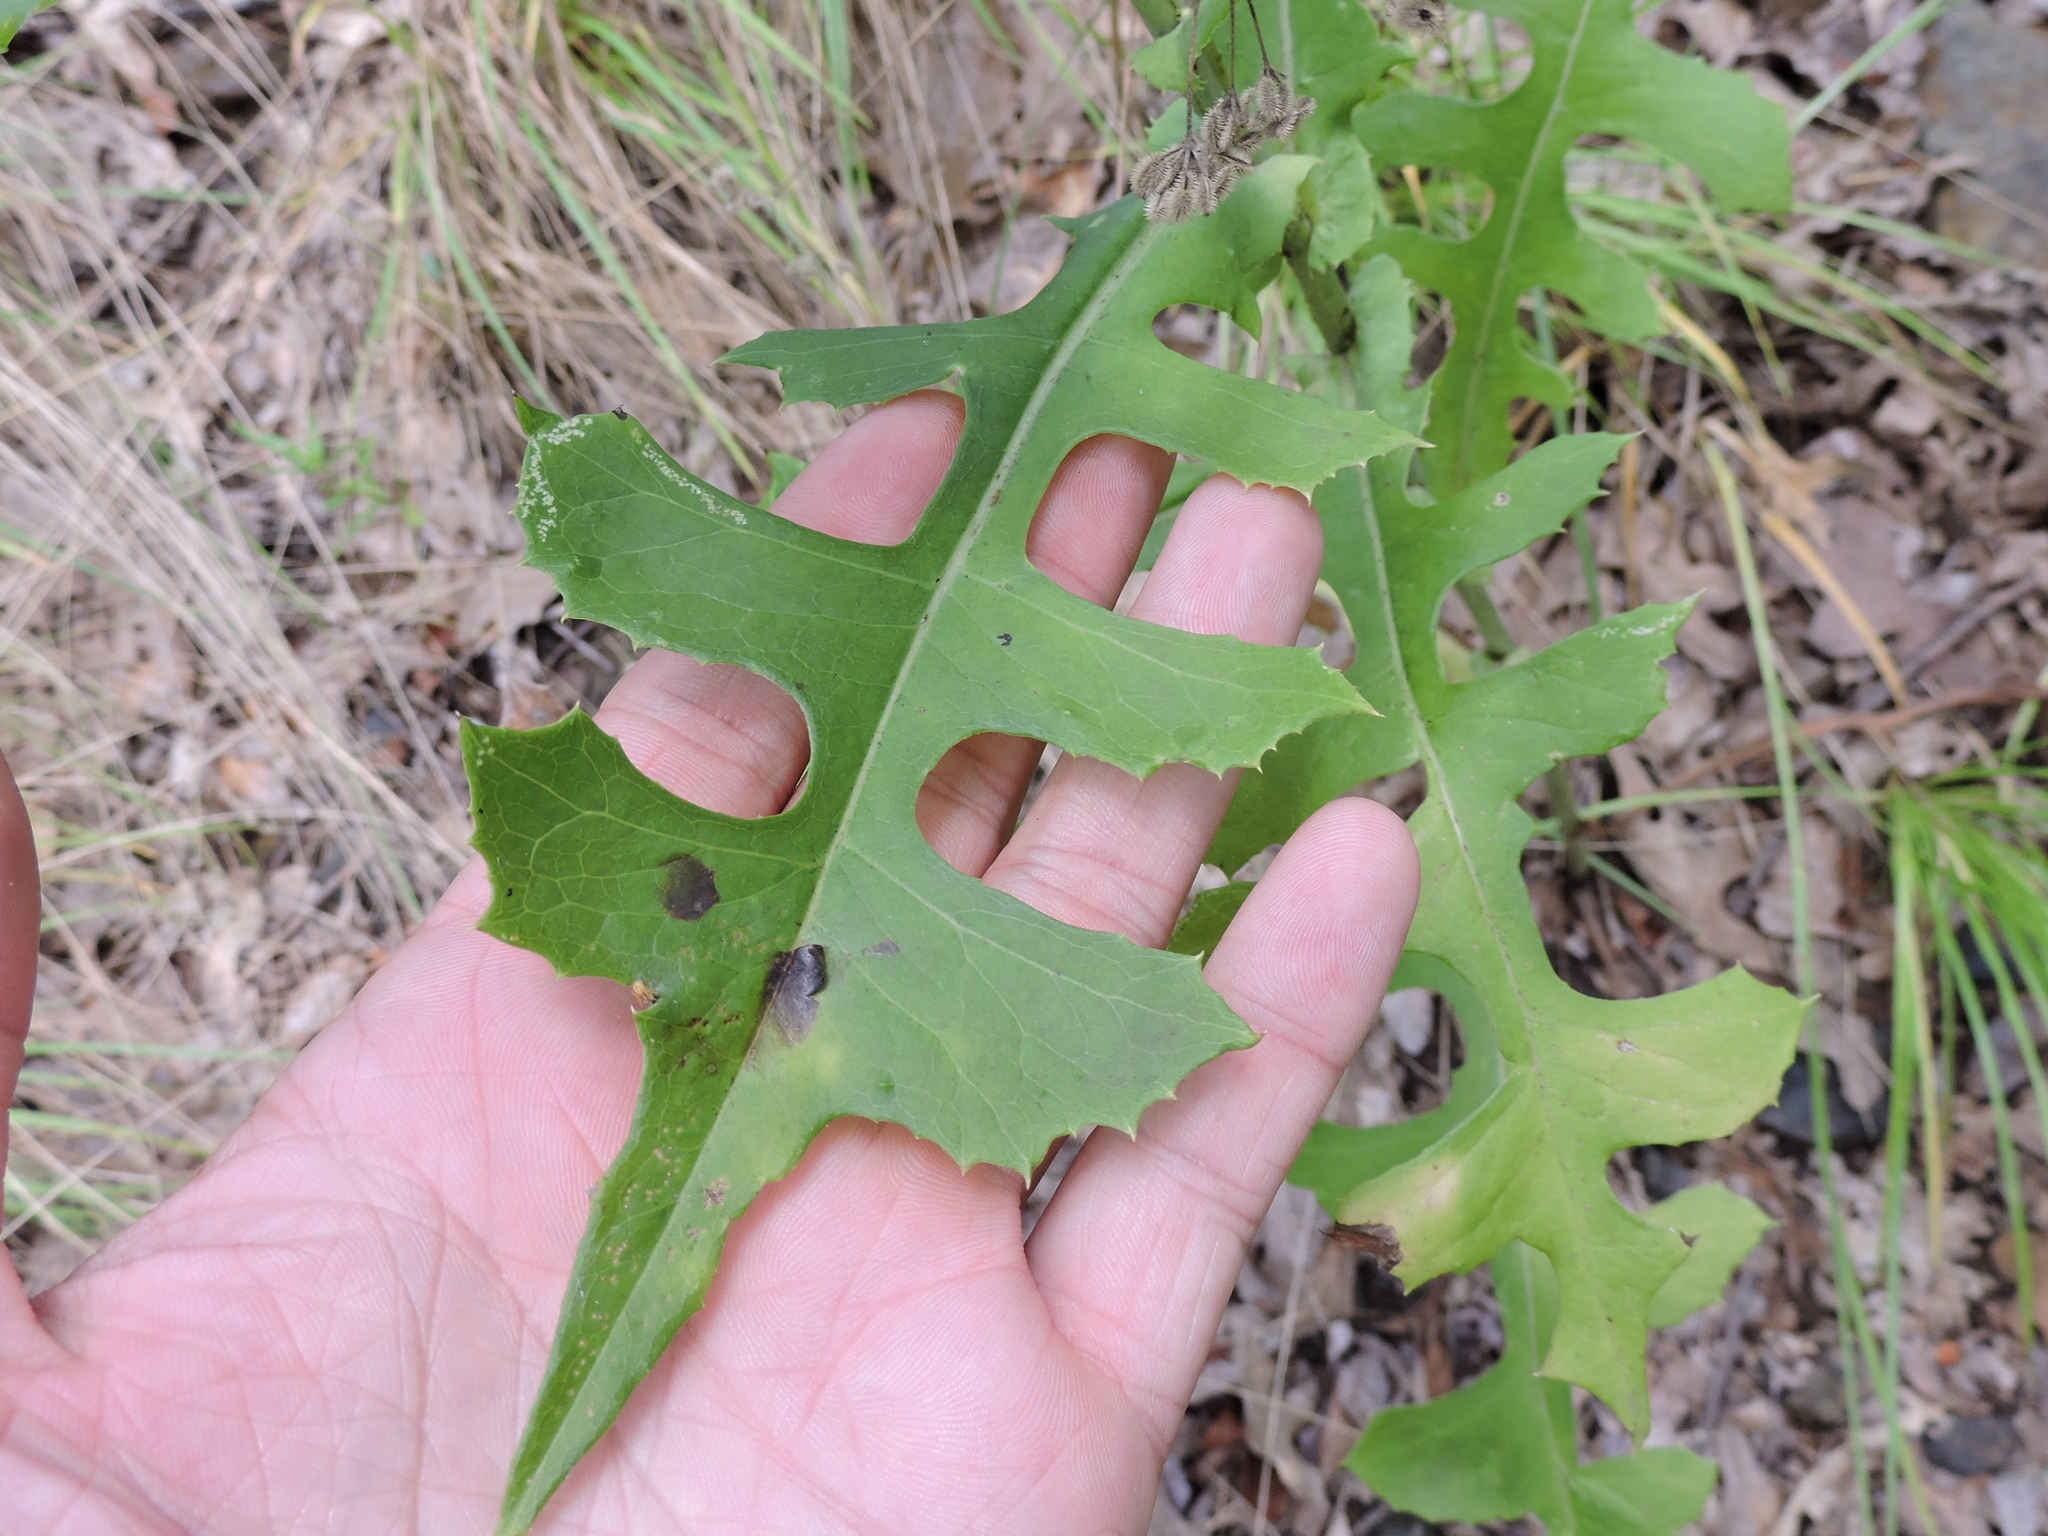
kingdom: Plantae
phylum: Tracheophyta
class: Magnoliopsida
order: Asterales
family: Asteraceae
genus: Lactuca
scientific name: Lactuca ludoviciana
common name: Louisiana lettuce
